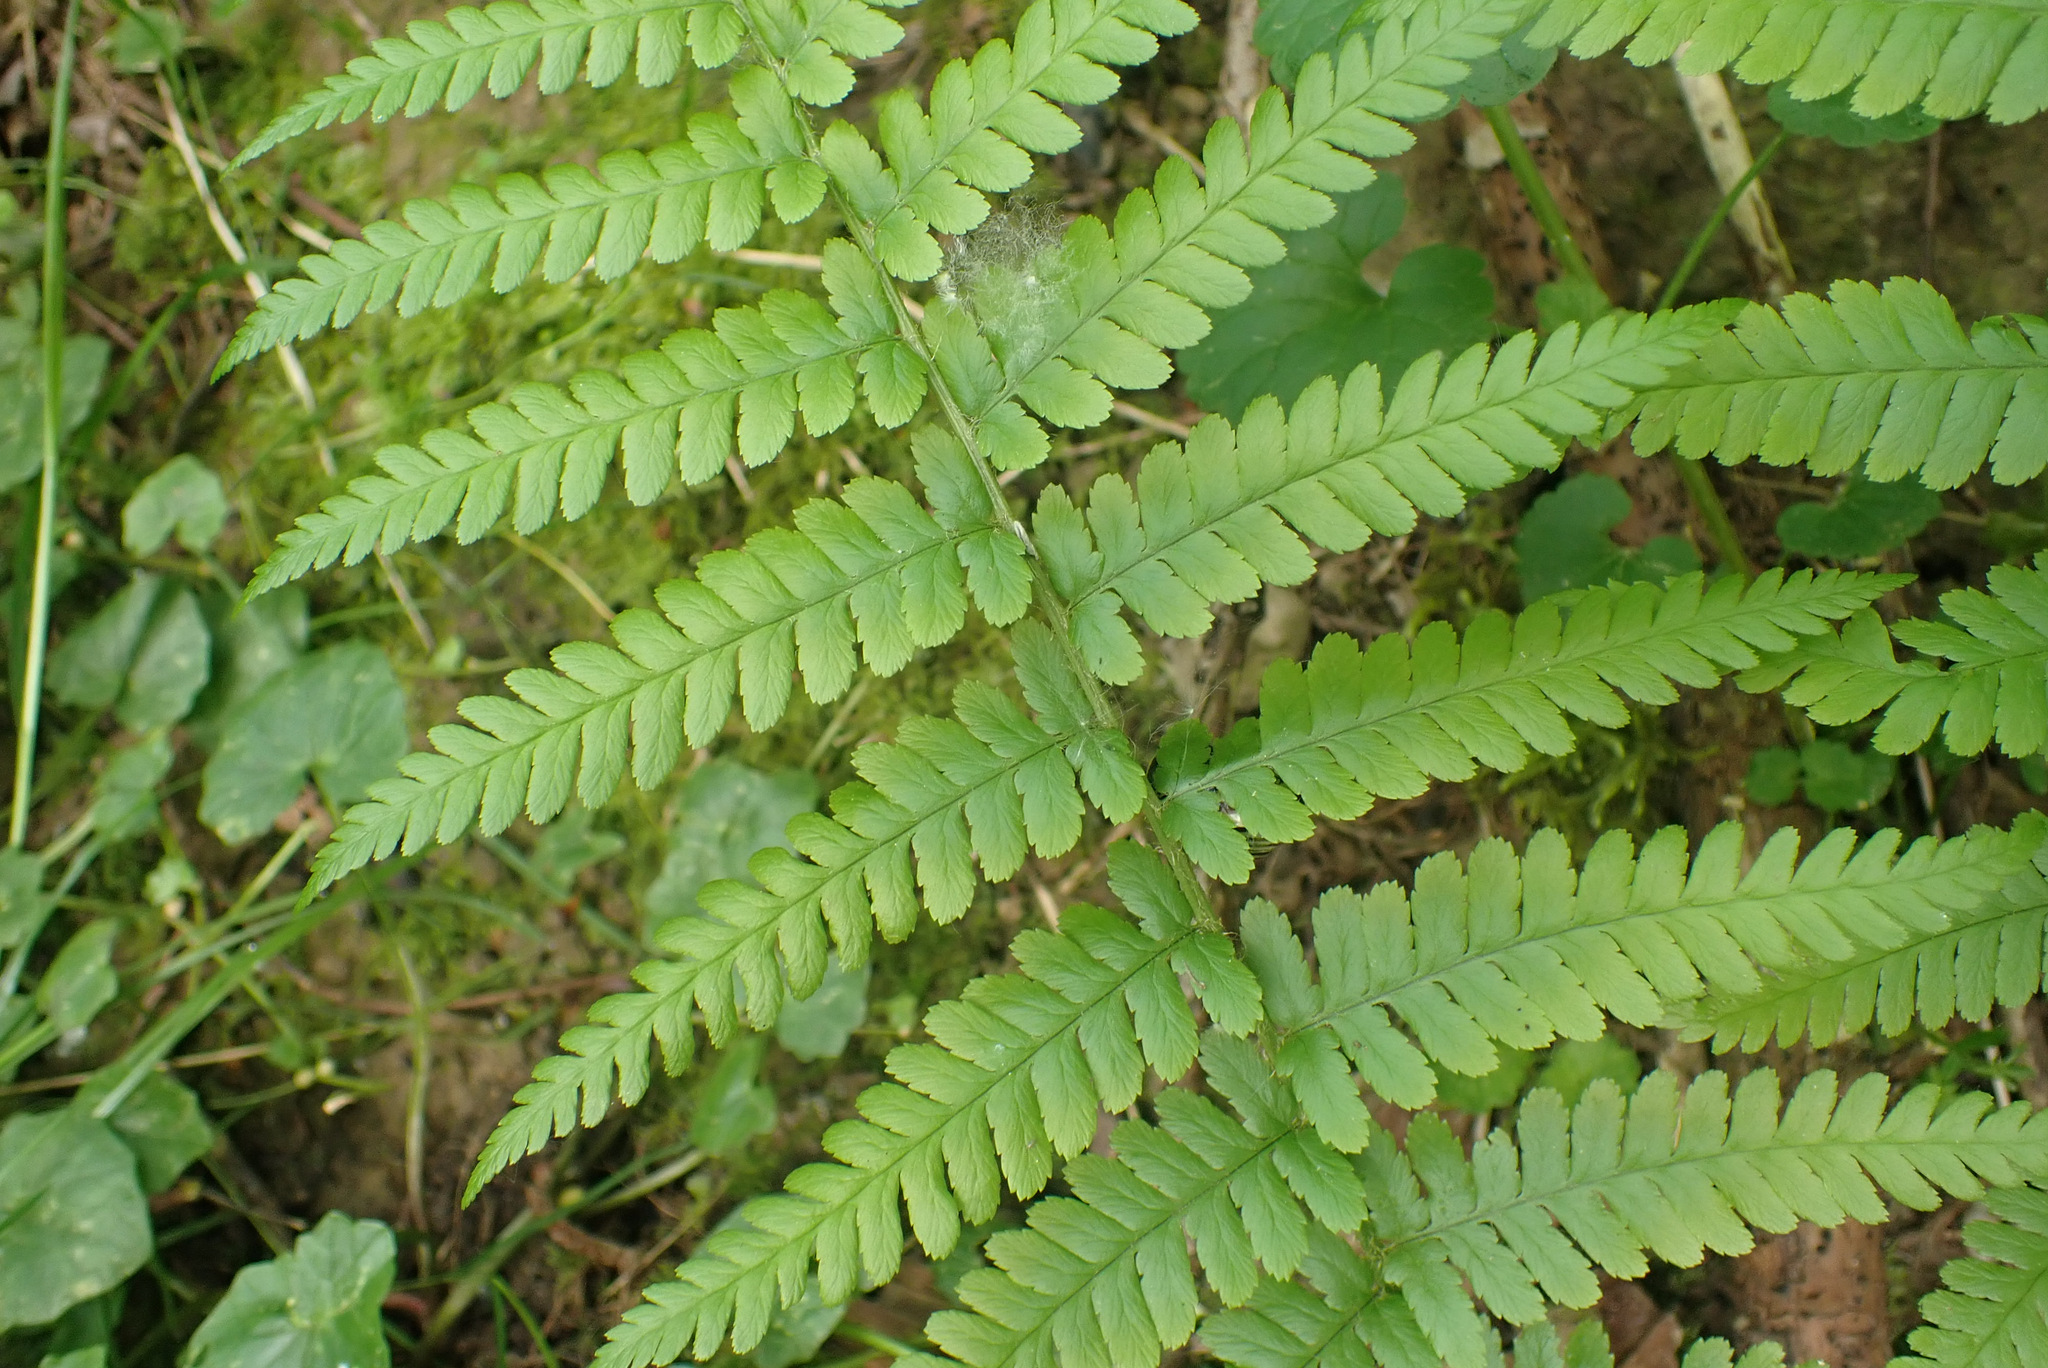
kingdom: Plantae
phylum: Tracheophyta
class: Polypodiopsida
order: Polypodiales
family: Dryopteridaceae
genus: Dryopteris
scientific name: Dryopteris filix-mas
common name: Male fern
